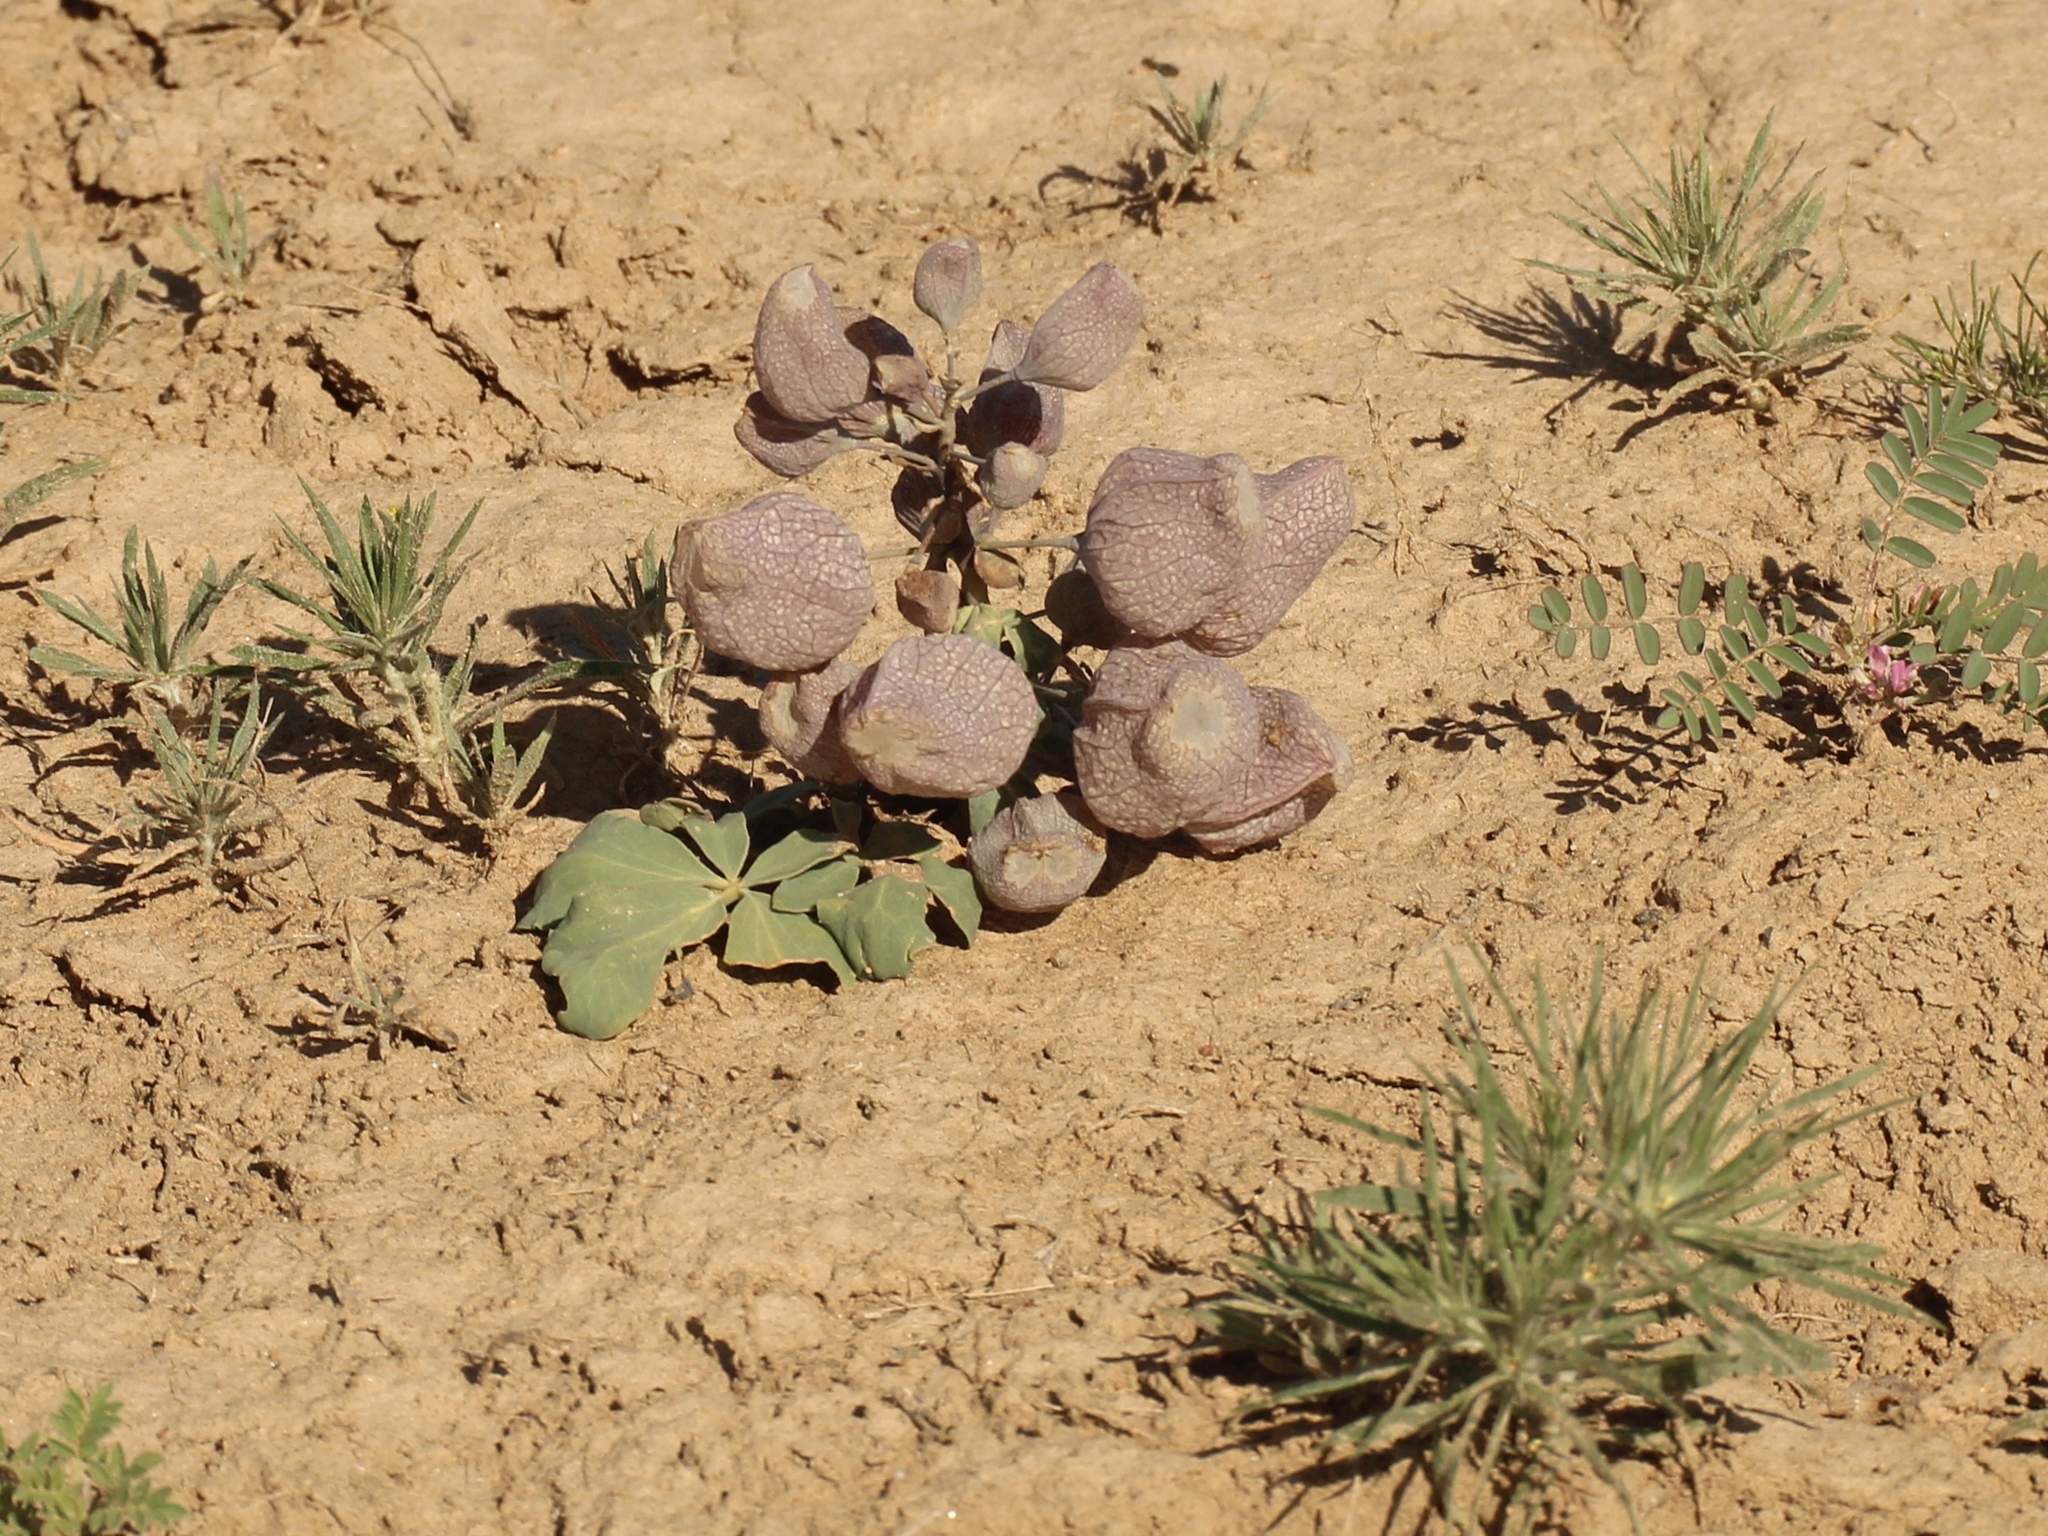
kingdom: Plantae
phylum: Tracheophyta
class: Magnoliopsida
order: Ranunculales
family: Berberidaceae
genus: Leontice
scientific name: Leontice incerta
